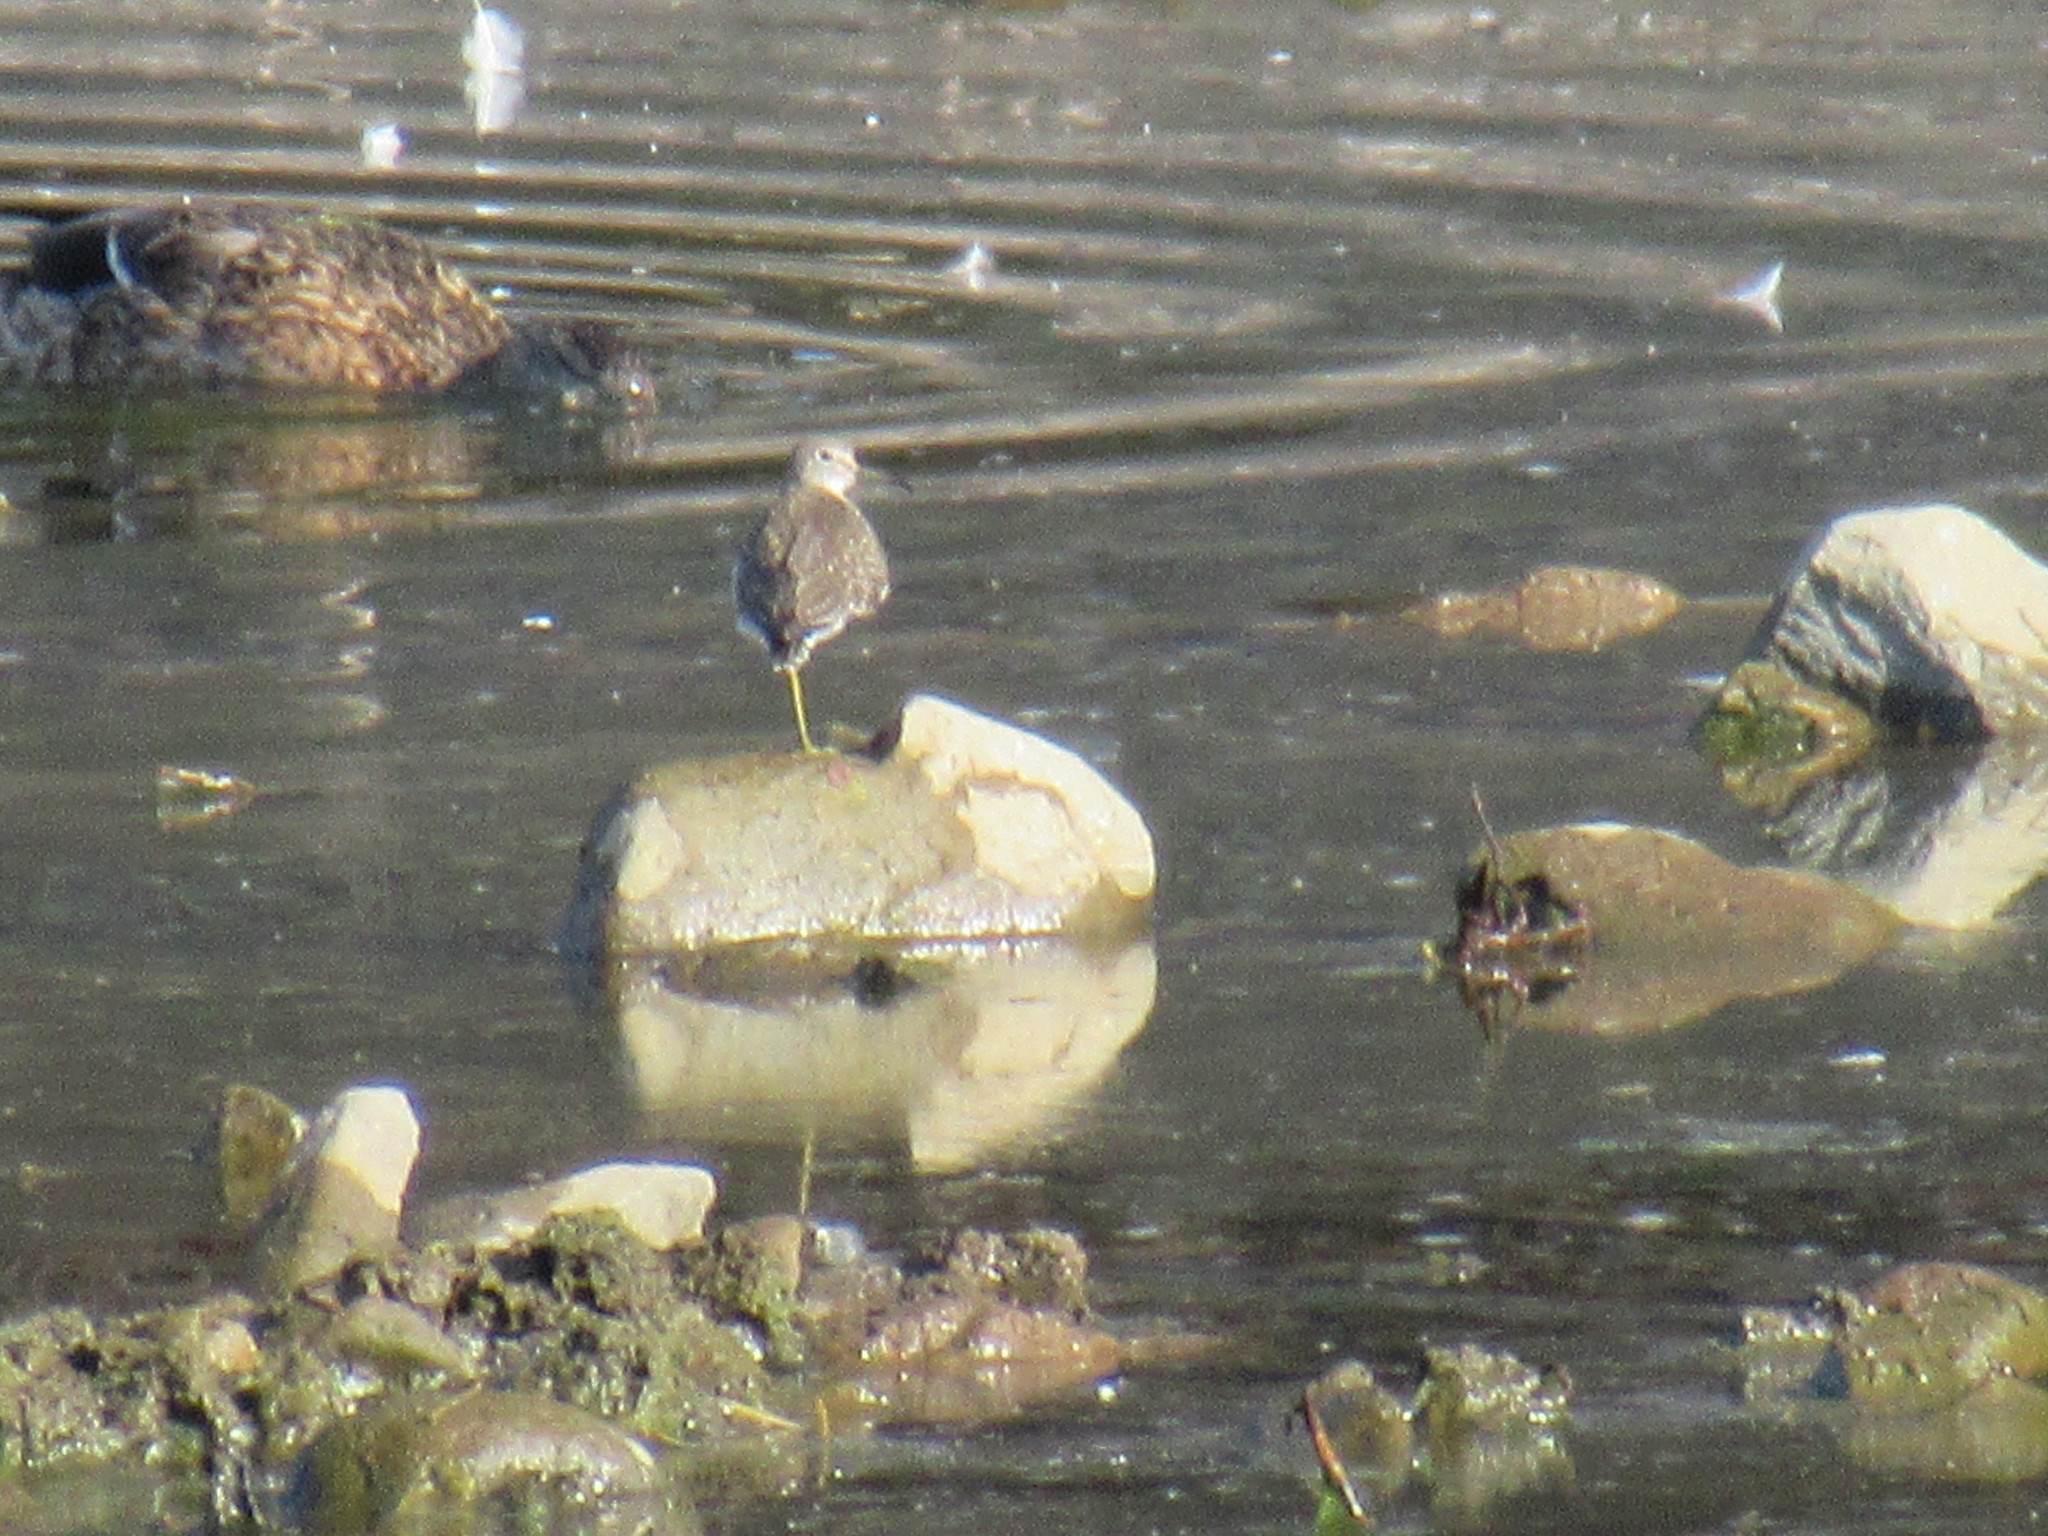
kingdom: Animalia
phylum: Chordata
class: Aves
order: Charadriiformes
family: Scolopacidae
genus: Tringa
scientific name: Tringa solitaria
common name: Solitary sandpiper
